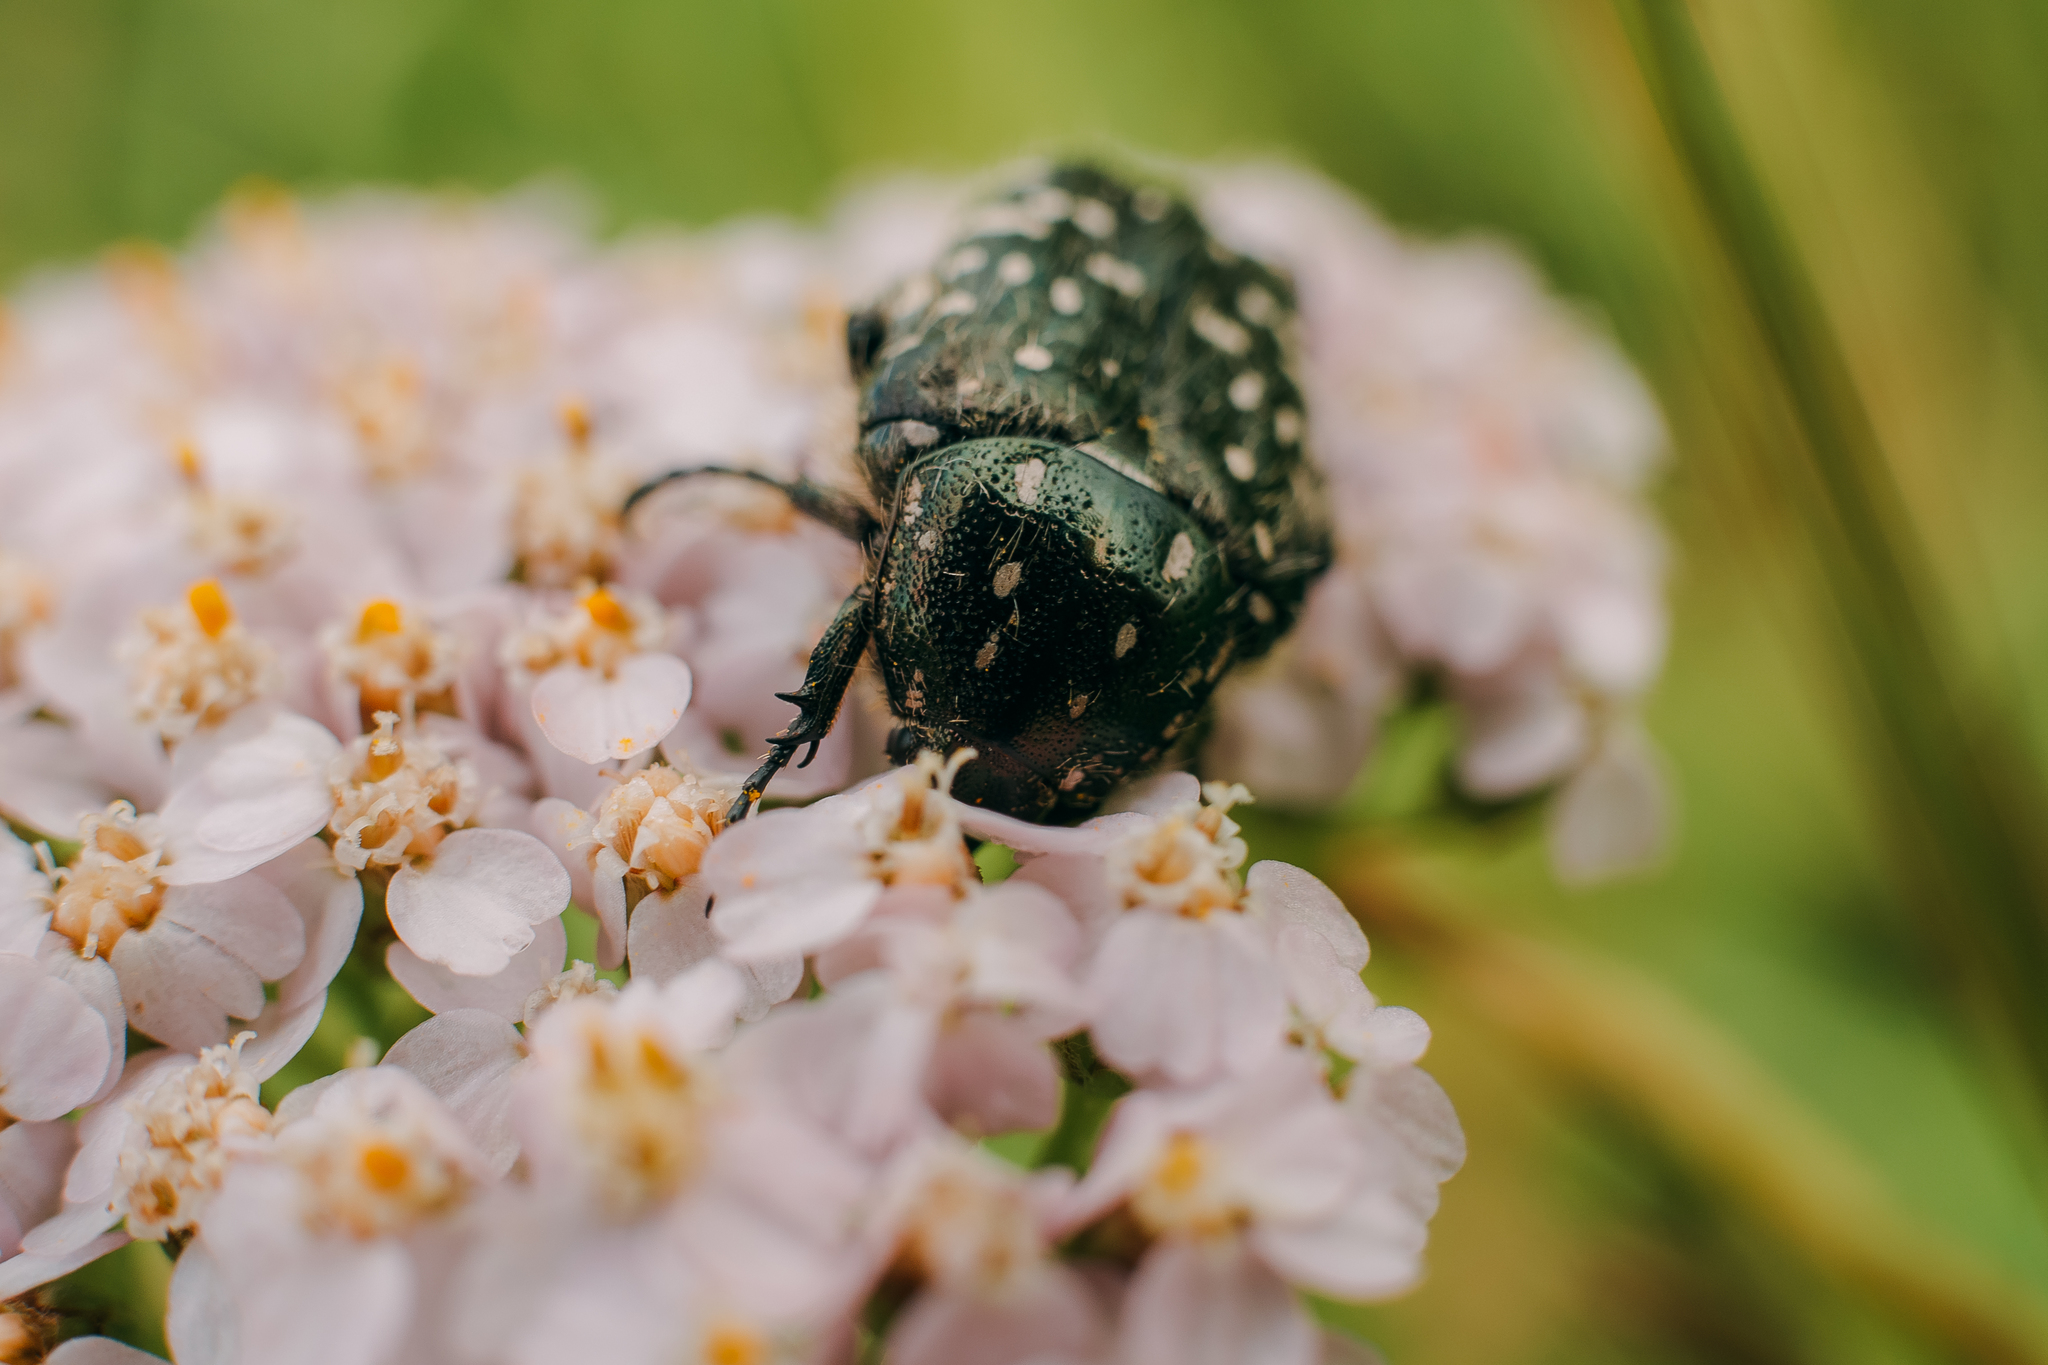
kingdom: Animalia
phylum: Arthropoda
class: Insecta
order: Coleoptera
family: Scarabaeidae
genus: Oxythyrea
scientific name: Oxythyrea funesta
